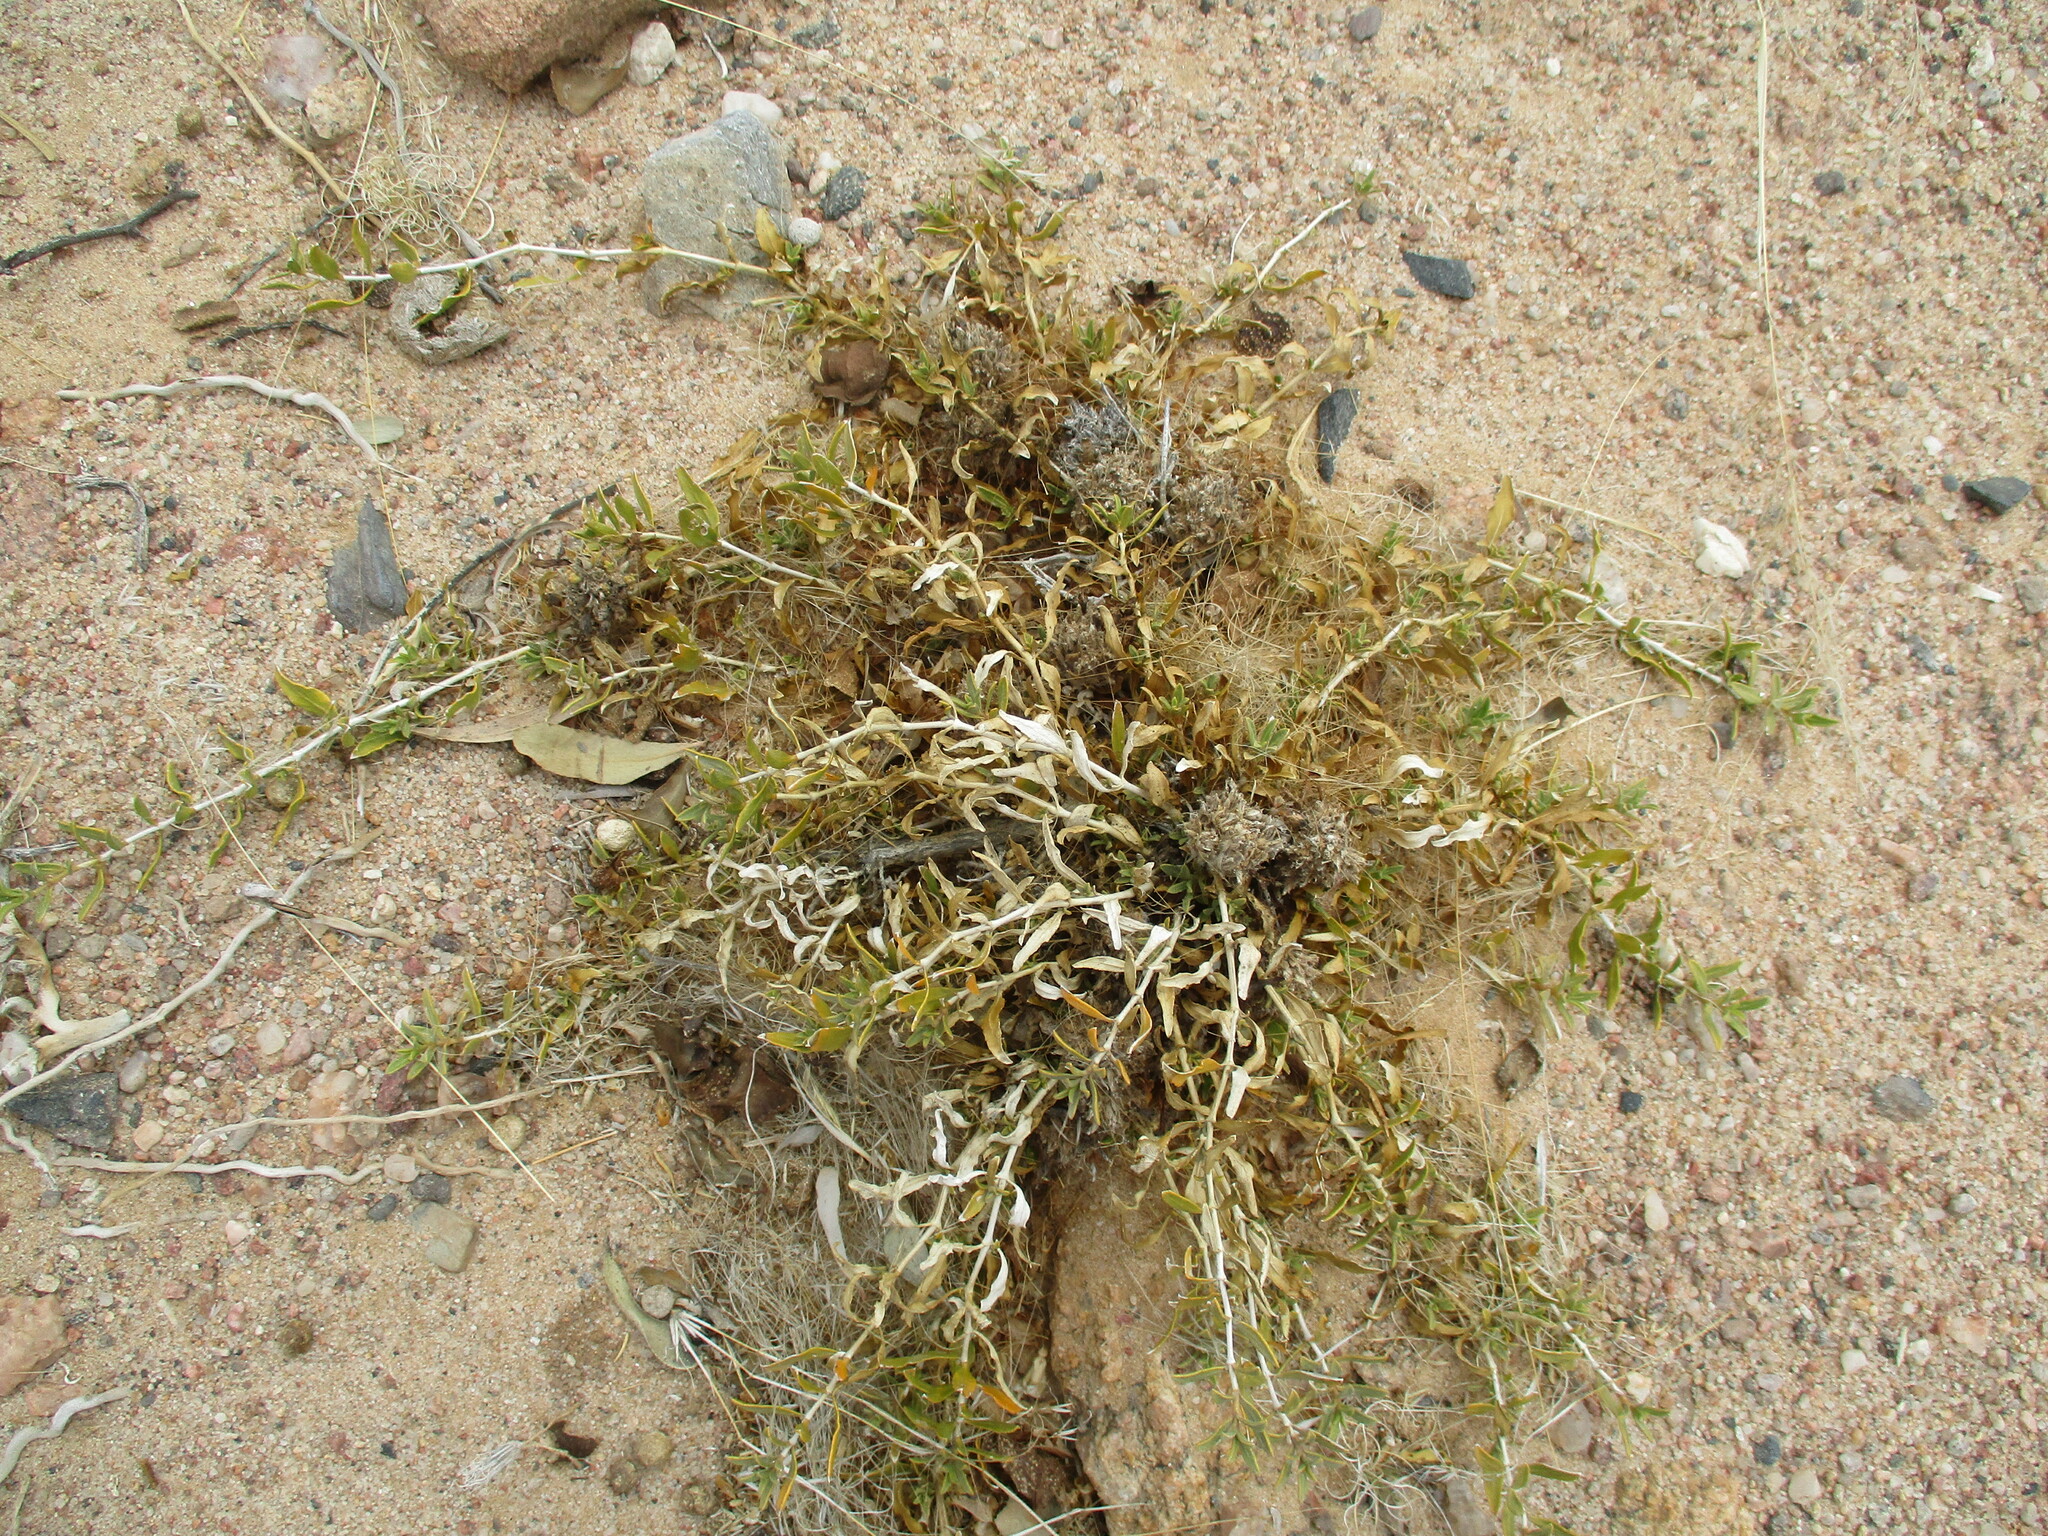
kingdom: Plantae
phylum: Tracheophyta
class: Magnoliopsida
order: Lamiales
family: Acanthaceae
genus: Petalidium
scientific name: Petalidium setosum
